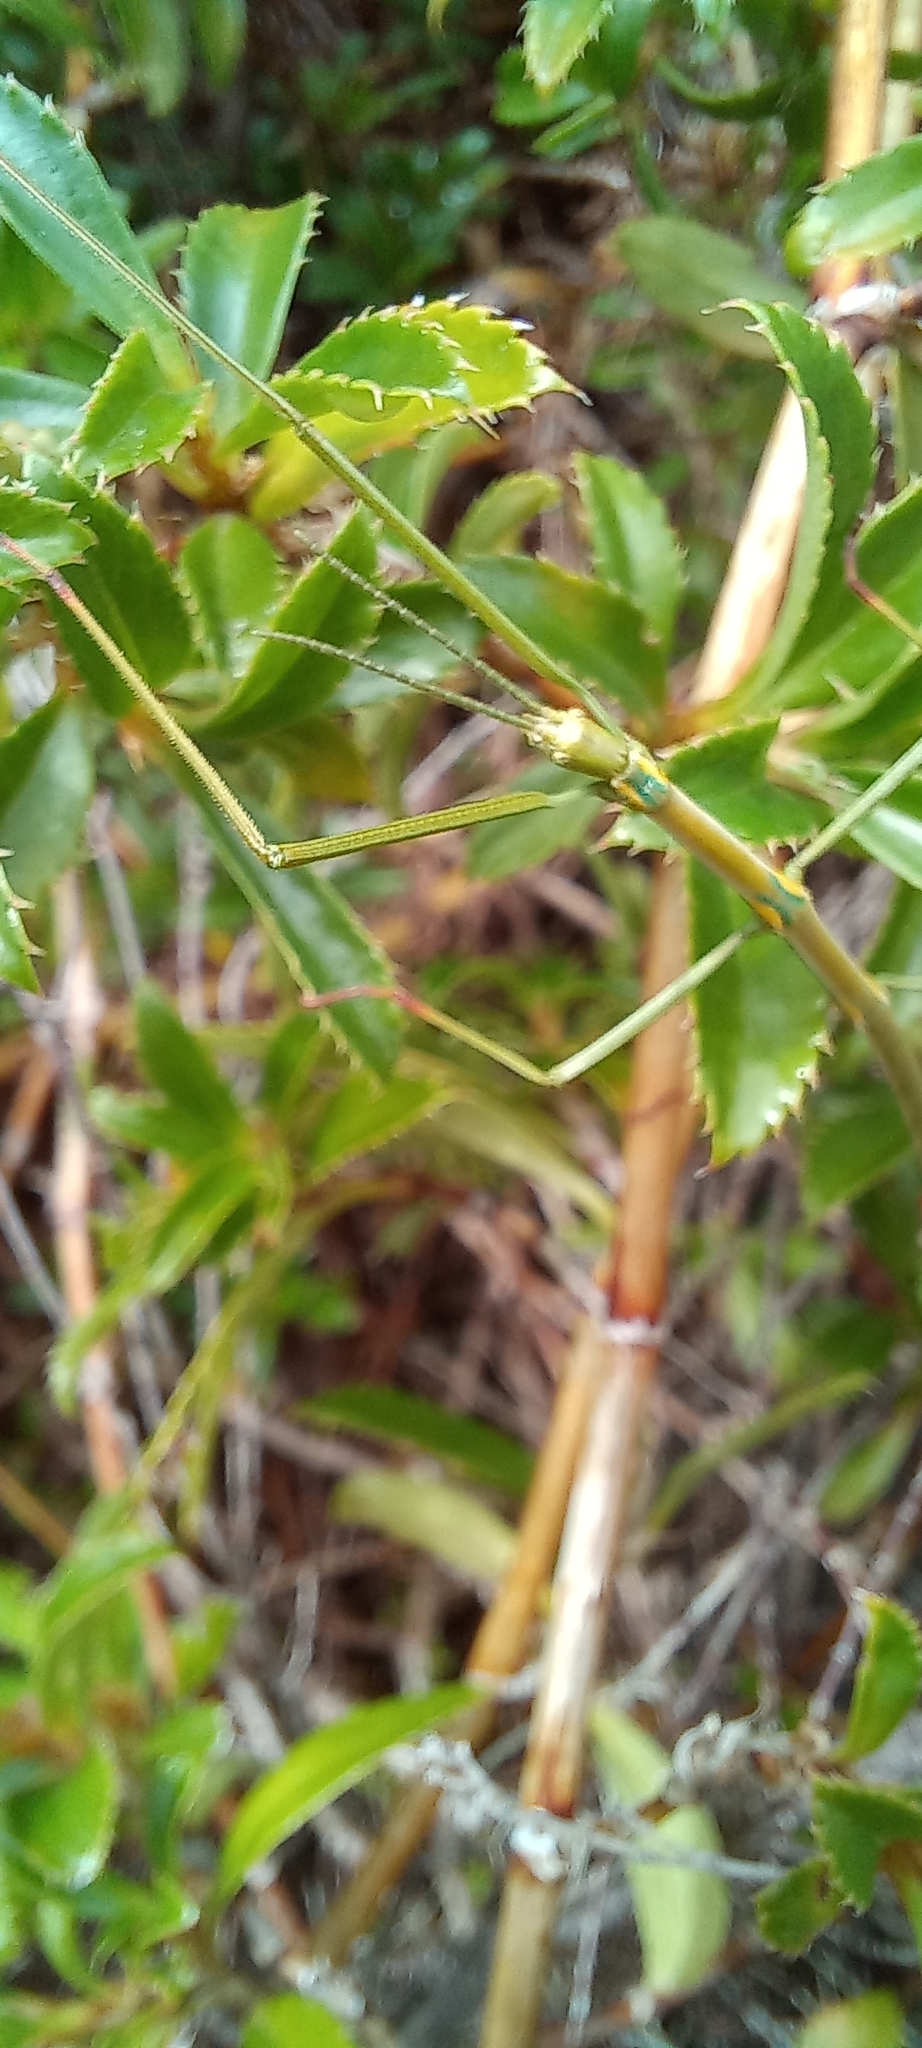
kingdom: Animalia
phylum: Arthropoda
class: Insecta
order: Phasmida
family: Bacillidae
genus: Phalces
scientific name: Phalces brevis
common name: Cape stick insect
